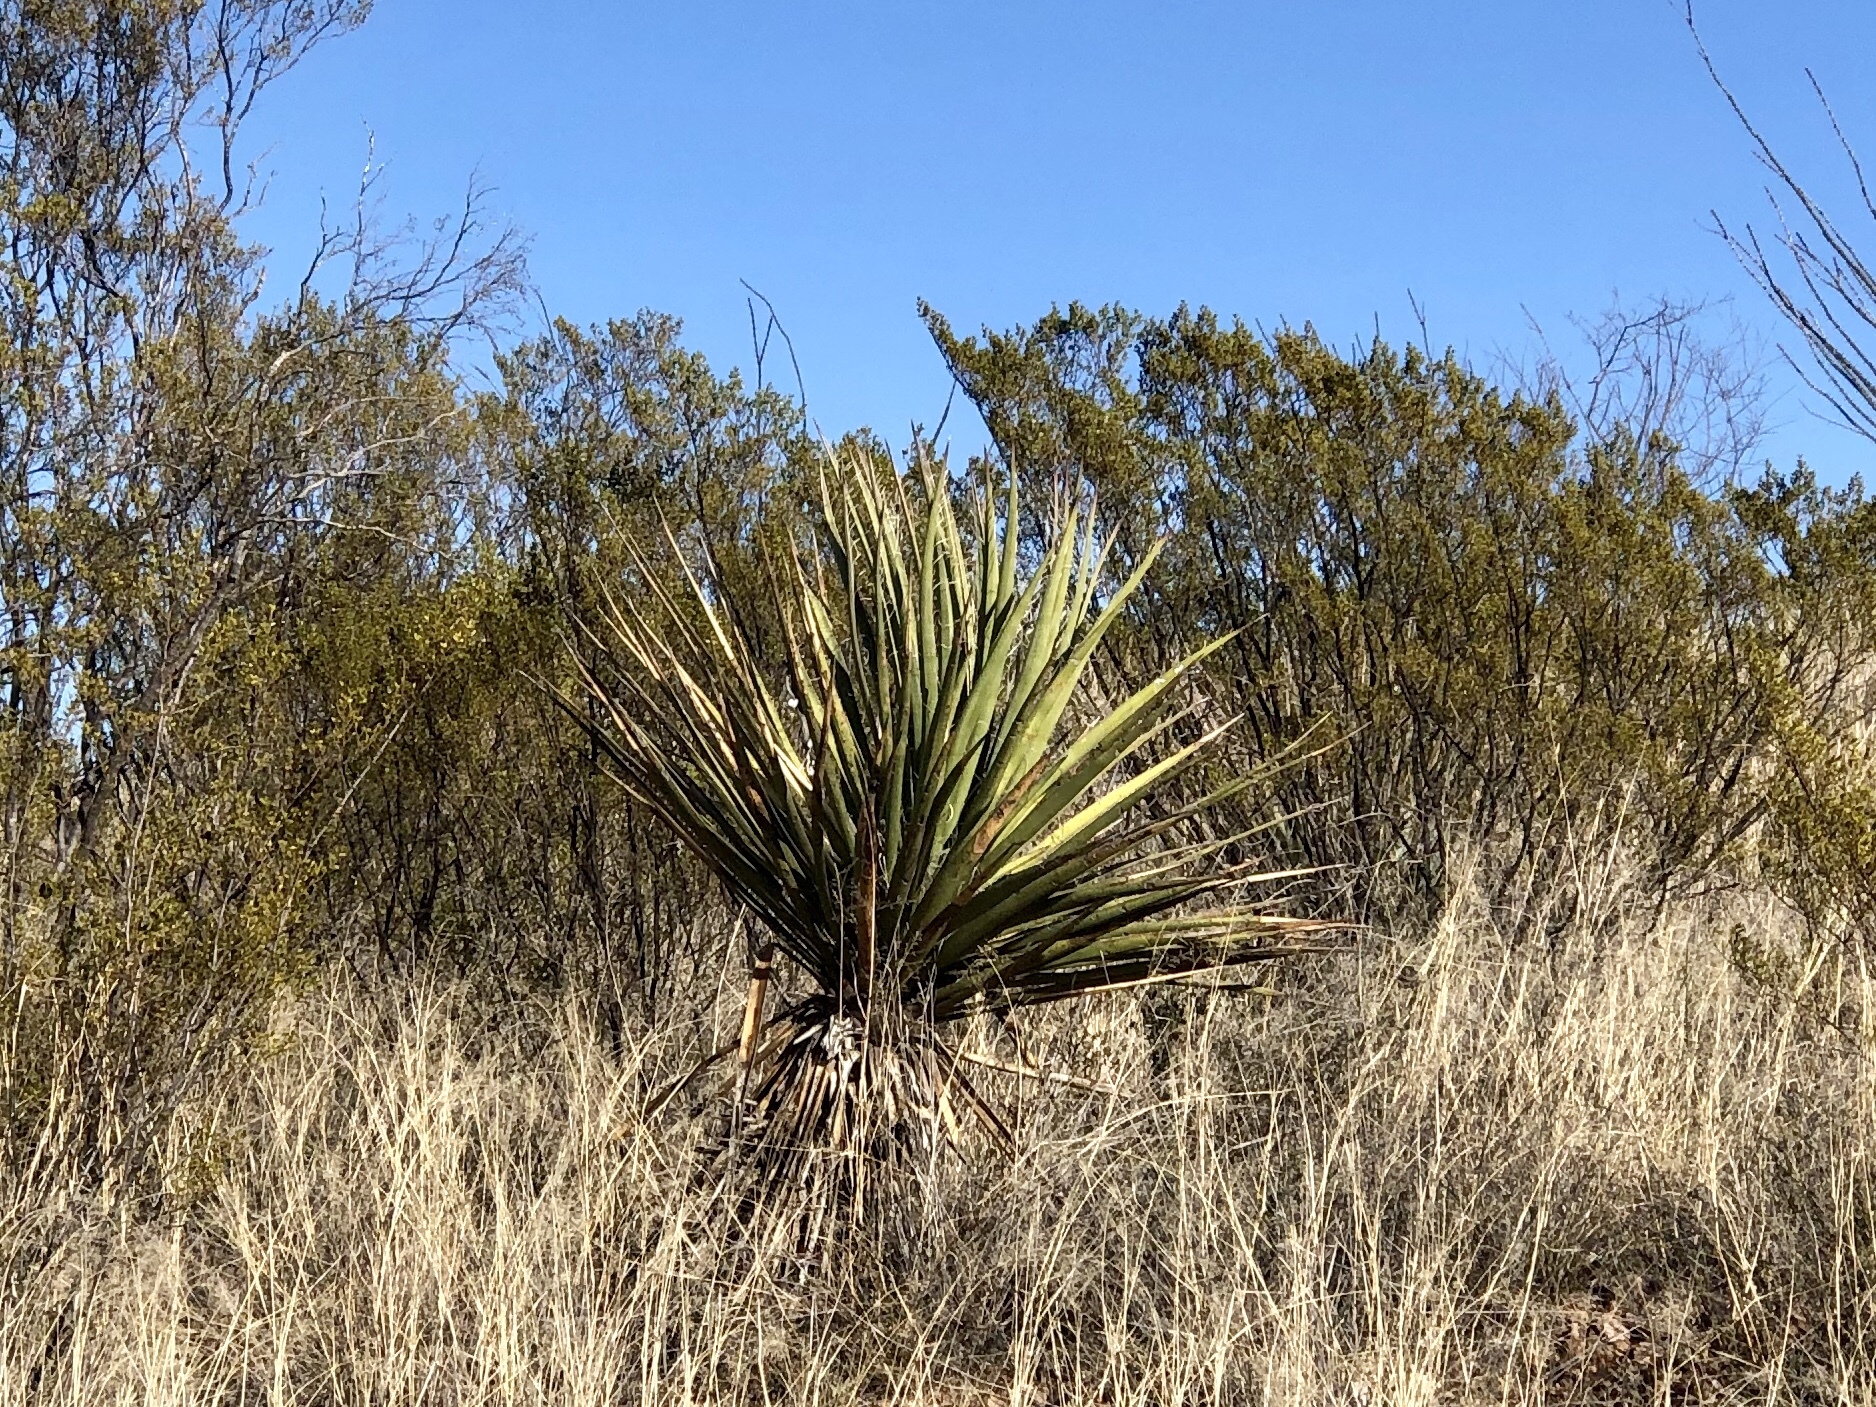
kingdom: Plantae
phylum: Tracheophyta
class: Liliopsida
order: Asparagales
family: Asparagaceae
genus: Yucca
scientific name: Yucca baccata
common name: Banana yucca
